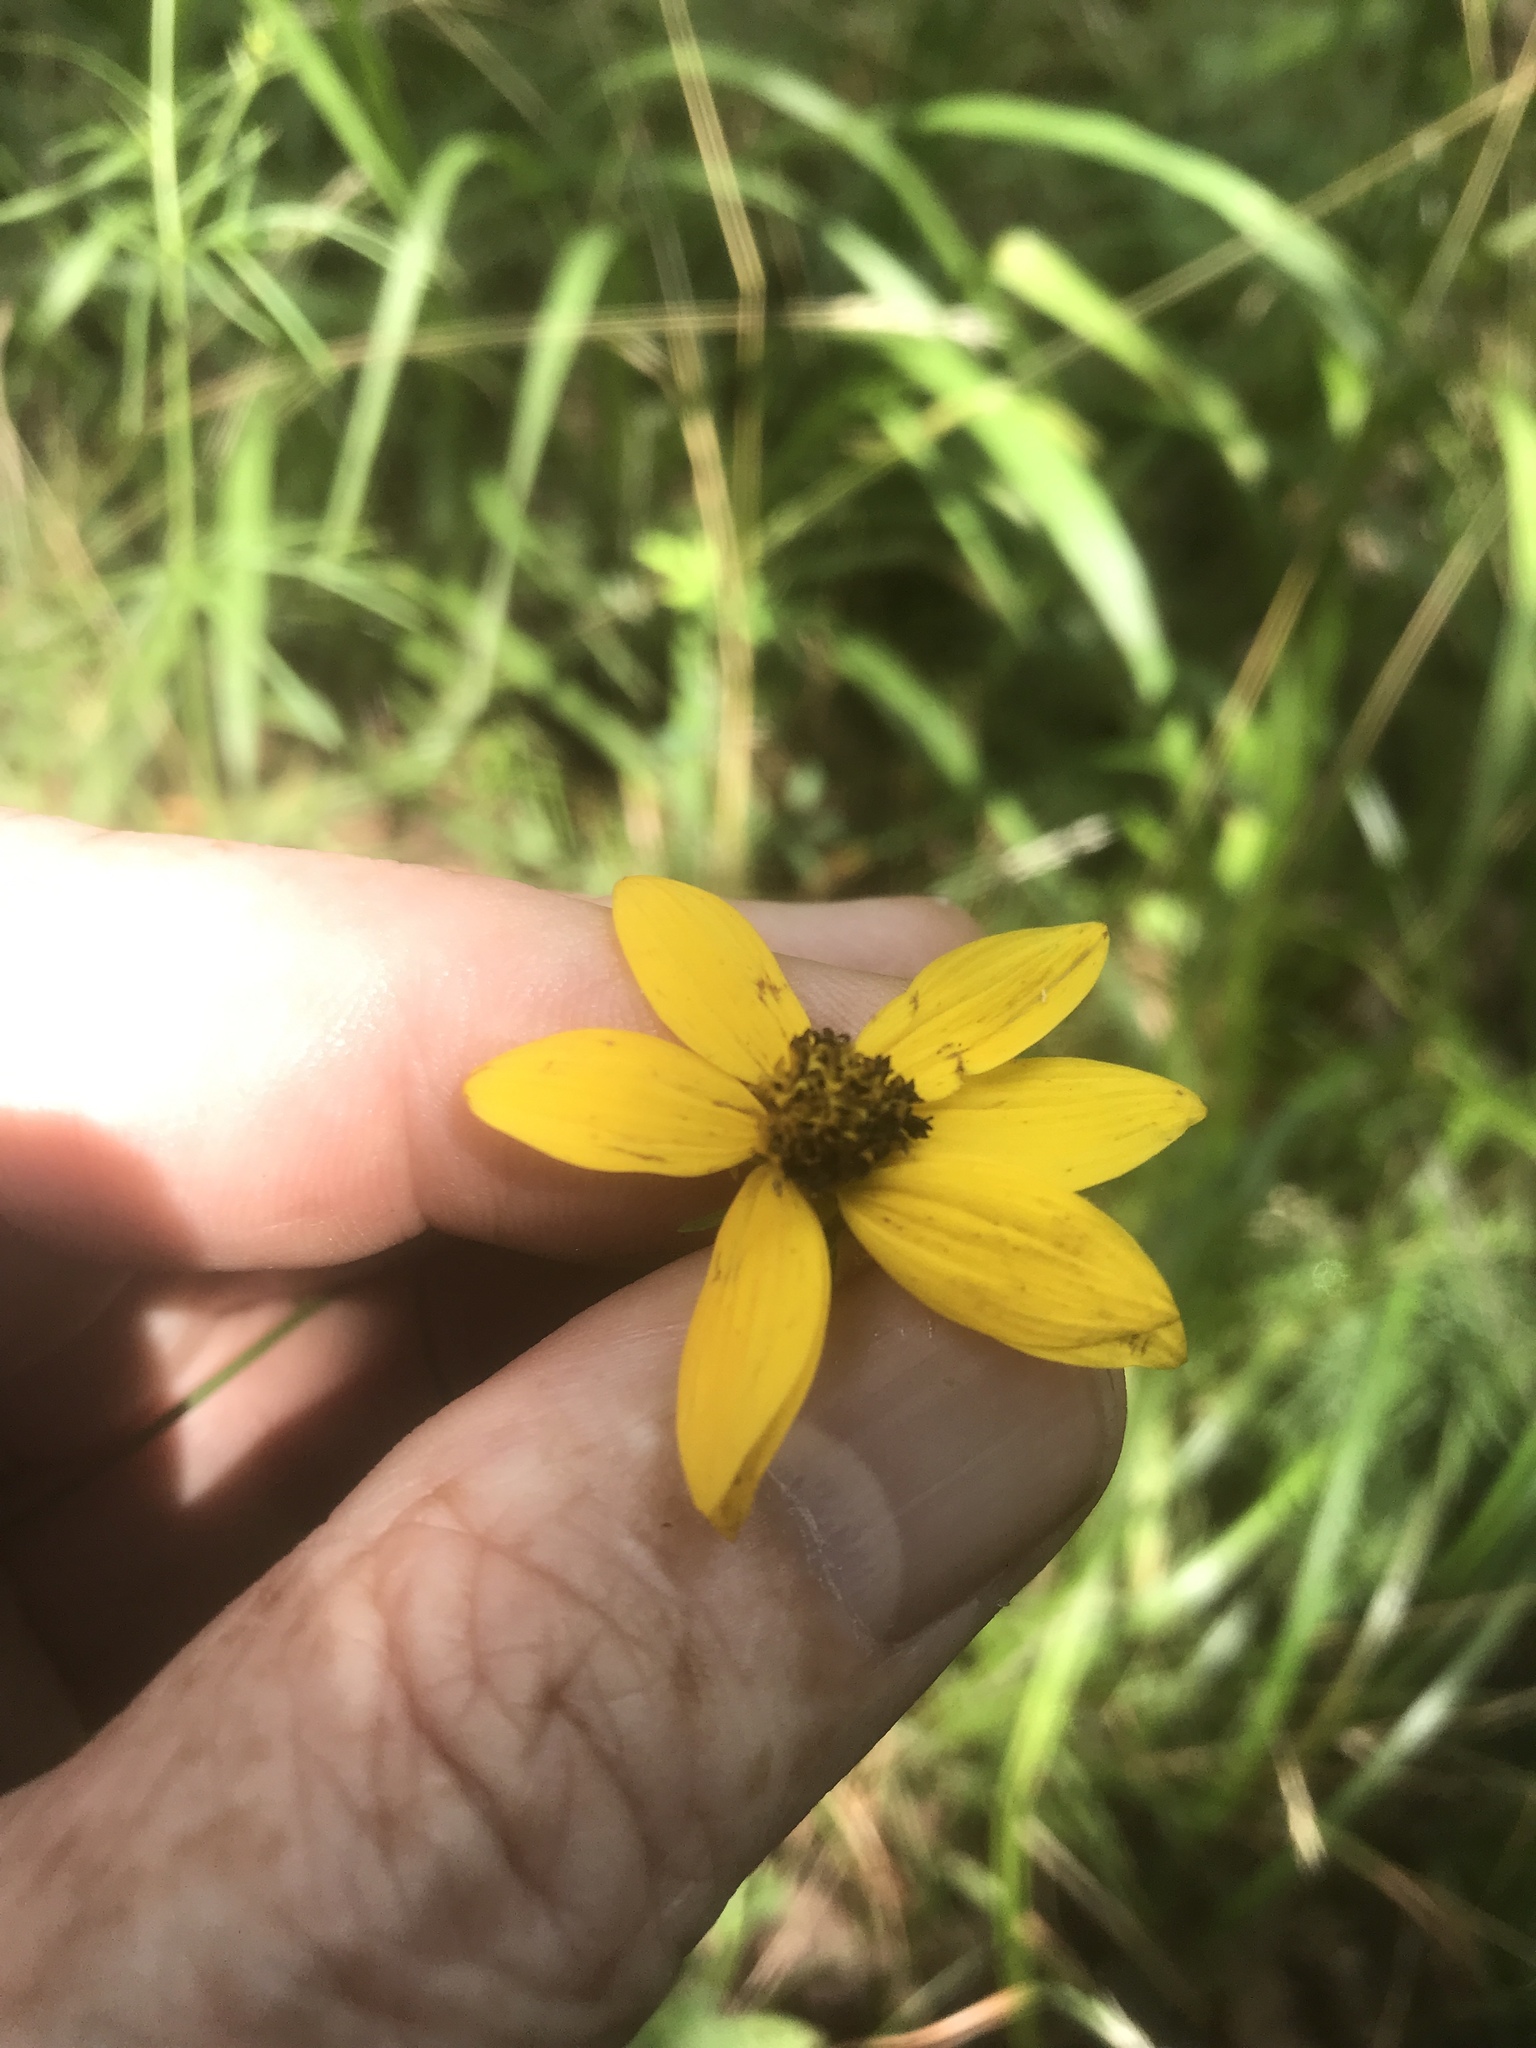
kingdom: Plantae
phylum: Tracheophyta
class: Magnoliopsida
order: Asterales
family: Asteraceae
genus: Coreopsis
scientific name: Coreopsis verticillata
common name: Whorled tickseed
